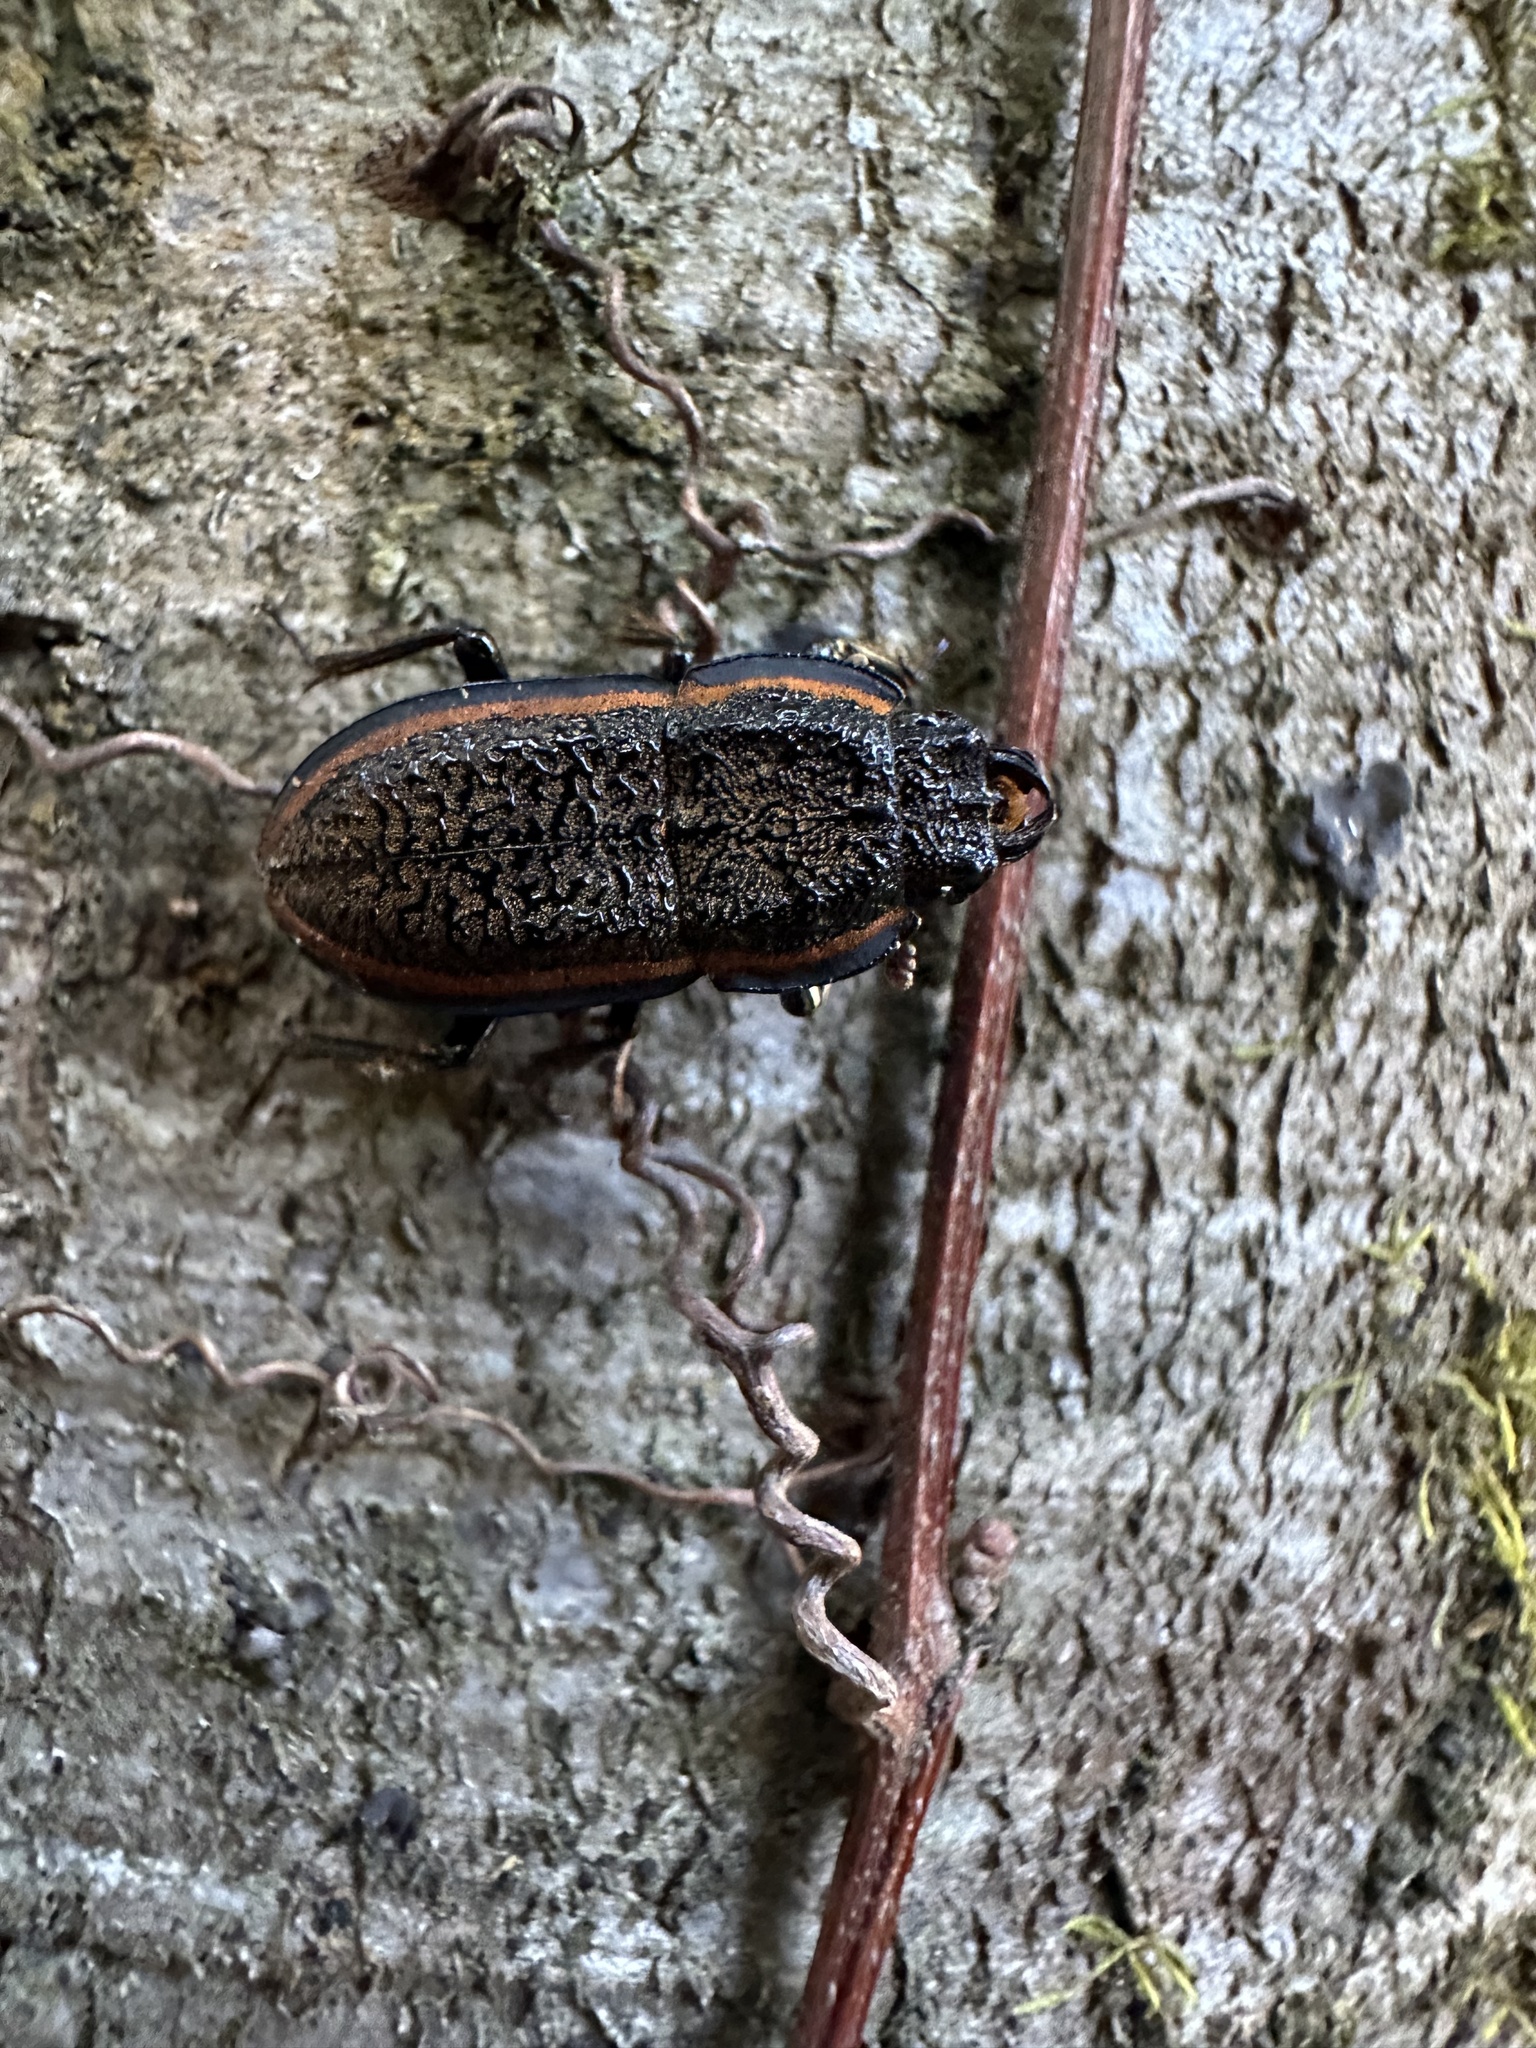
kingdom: Animalia
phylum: Arthropoda
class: Insecta
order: Coleoptera
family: Lucanidae
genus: Erichius
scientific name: Erichius caelatus
